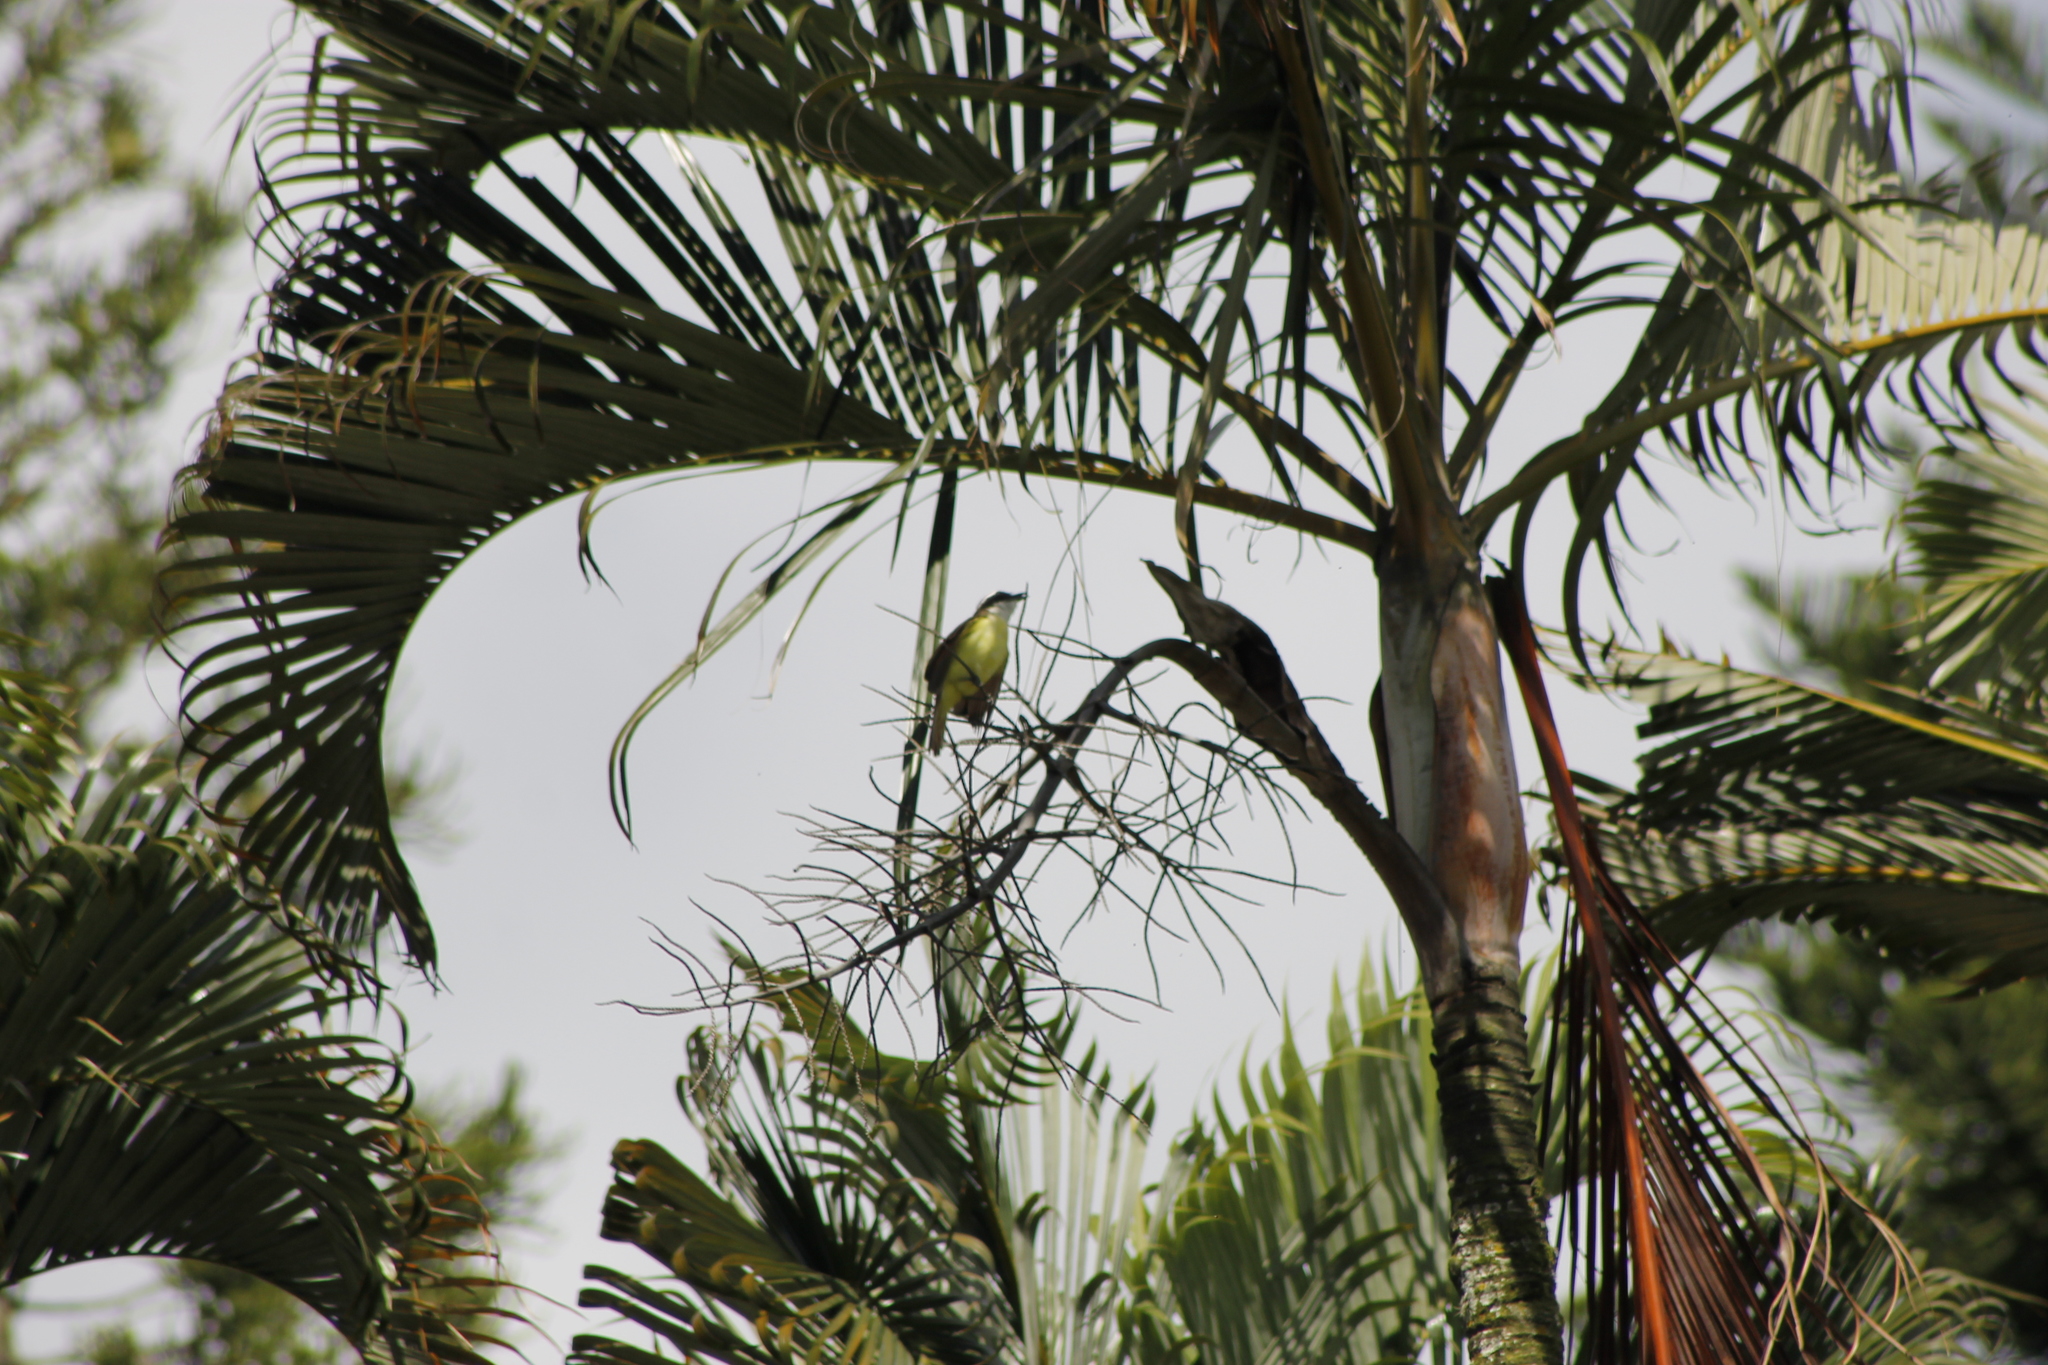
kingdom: Animalia
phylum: Chordata
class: Aves
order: Passeriformes
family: Tyrannidae
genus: Pitangus
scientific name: Pitangus sulphuratus
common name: Great kiskadee
